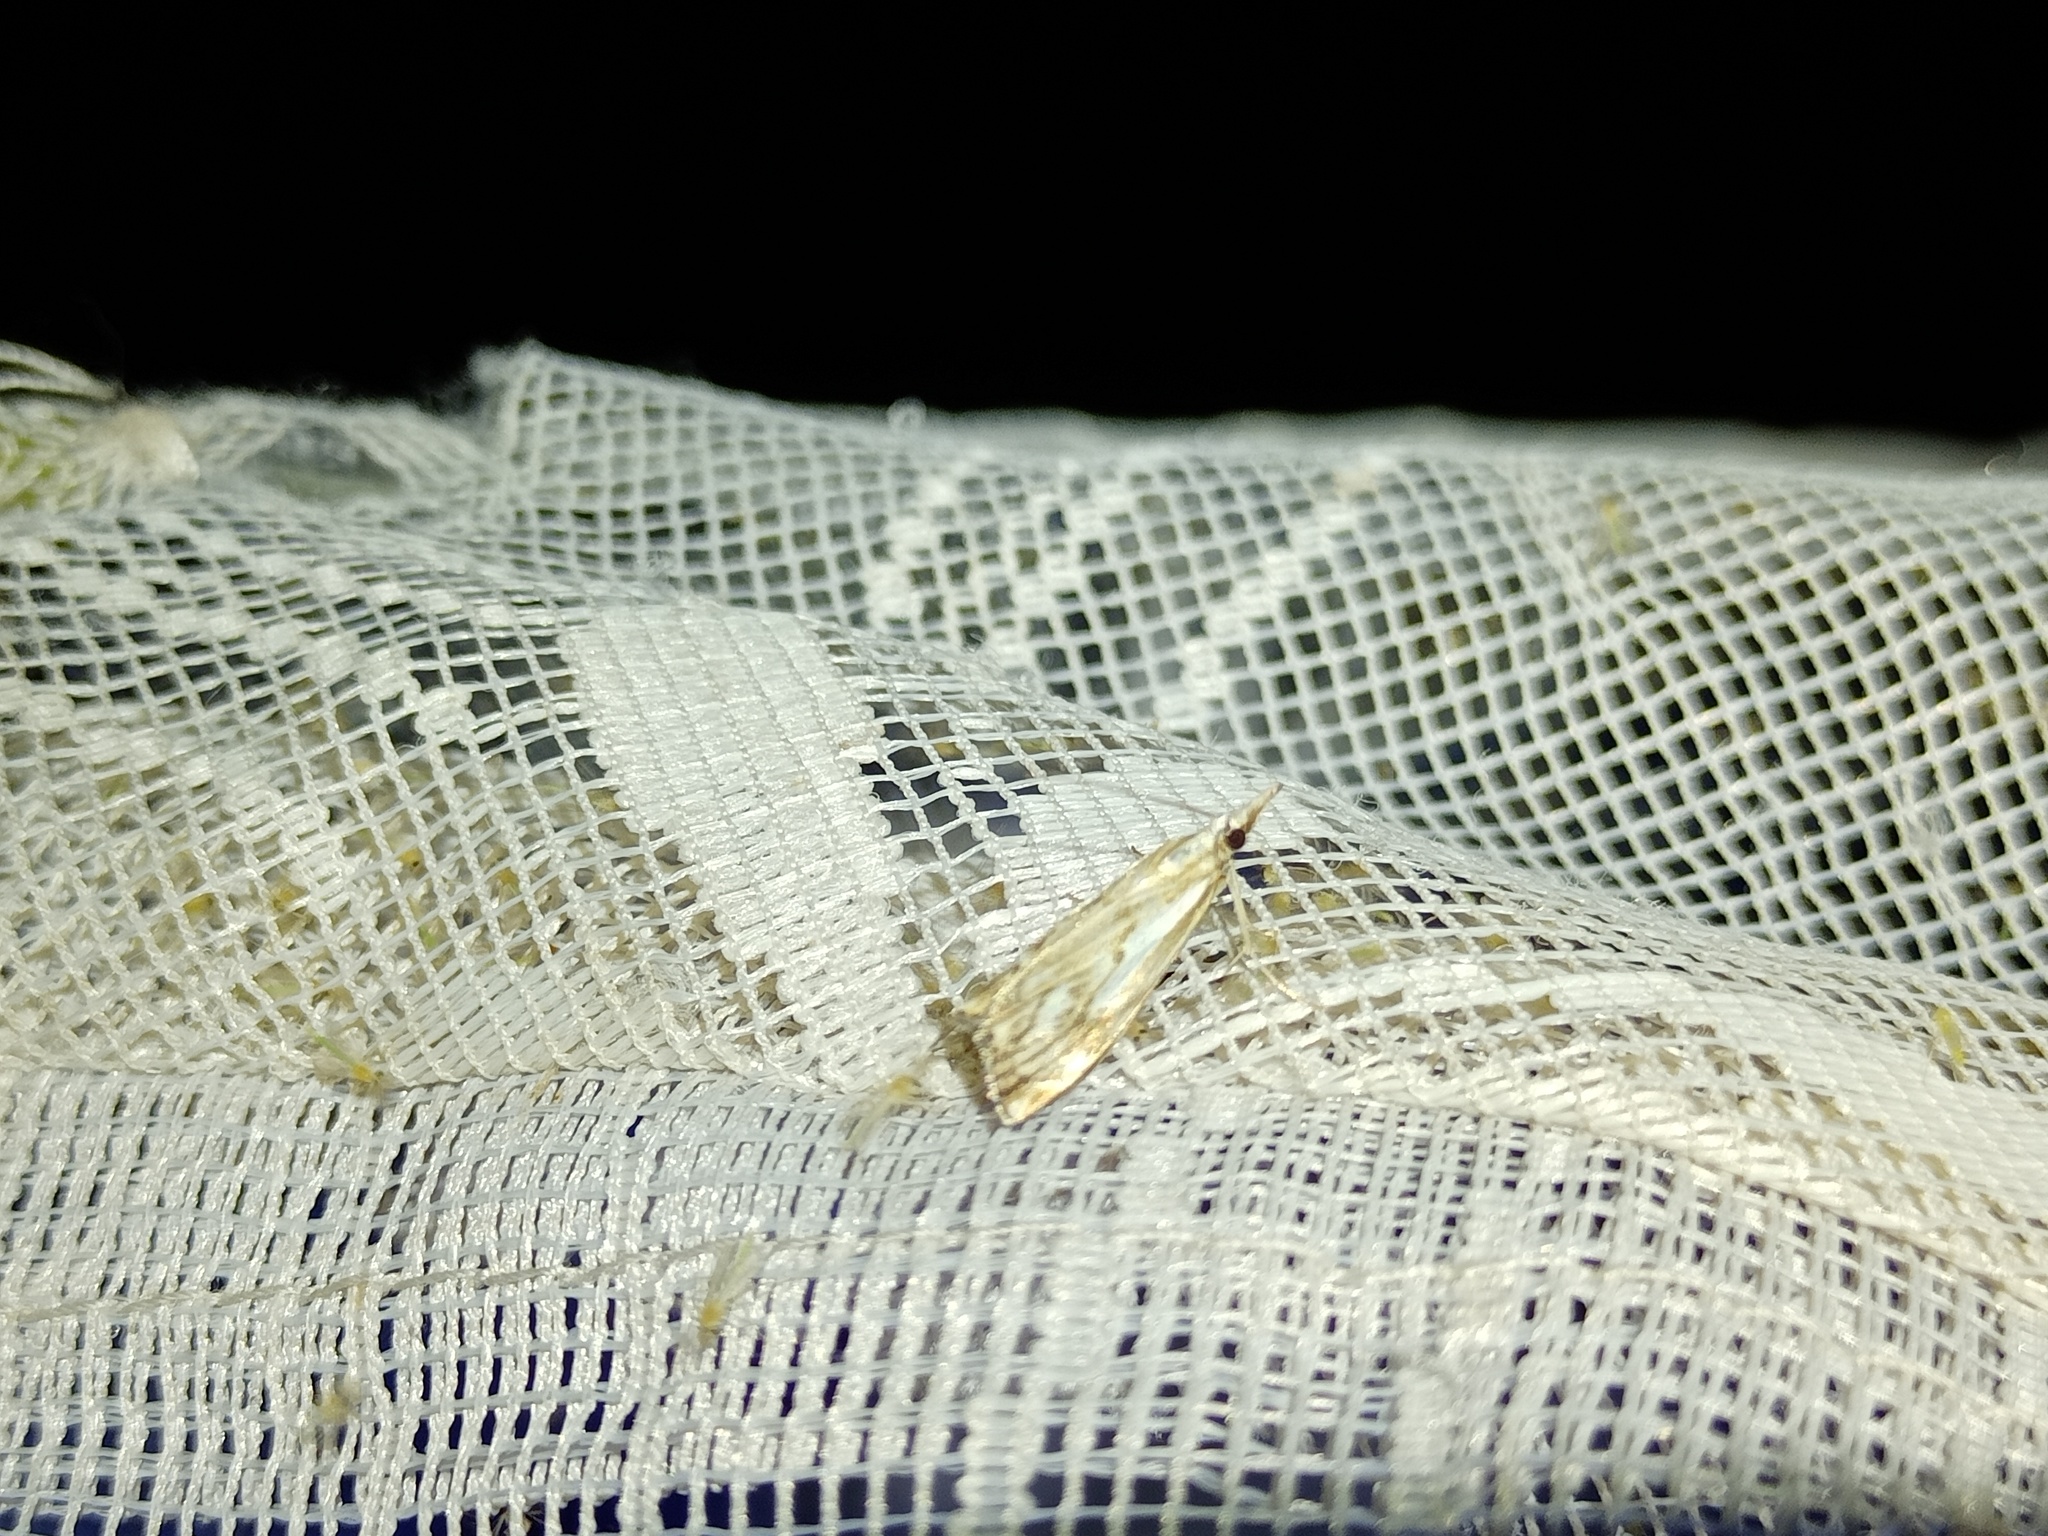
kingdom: Animalia
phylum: Arthropoda
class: Insecta
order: Lepidoptera
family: Crambidae
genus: Catoptria
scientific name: Catoptria falsella
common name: Chequered grass-veneer
